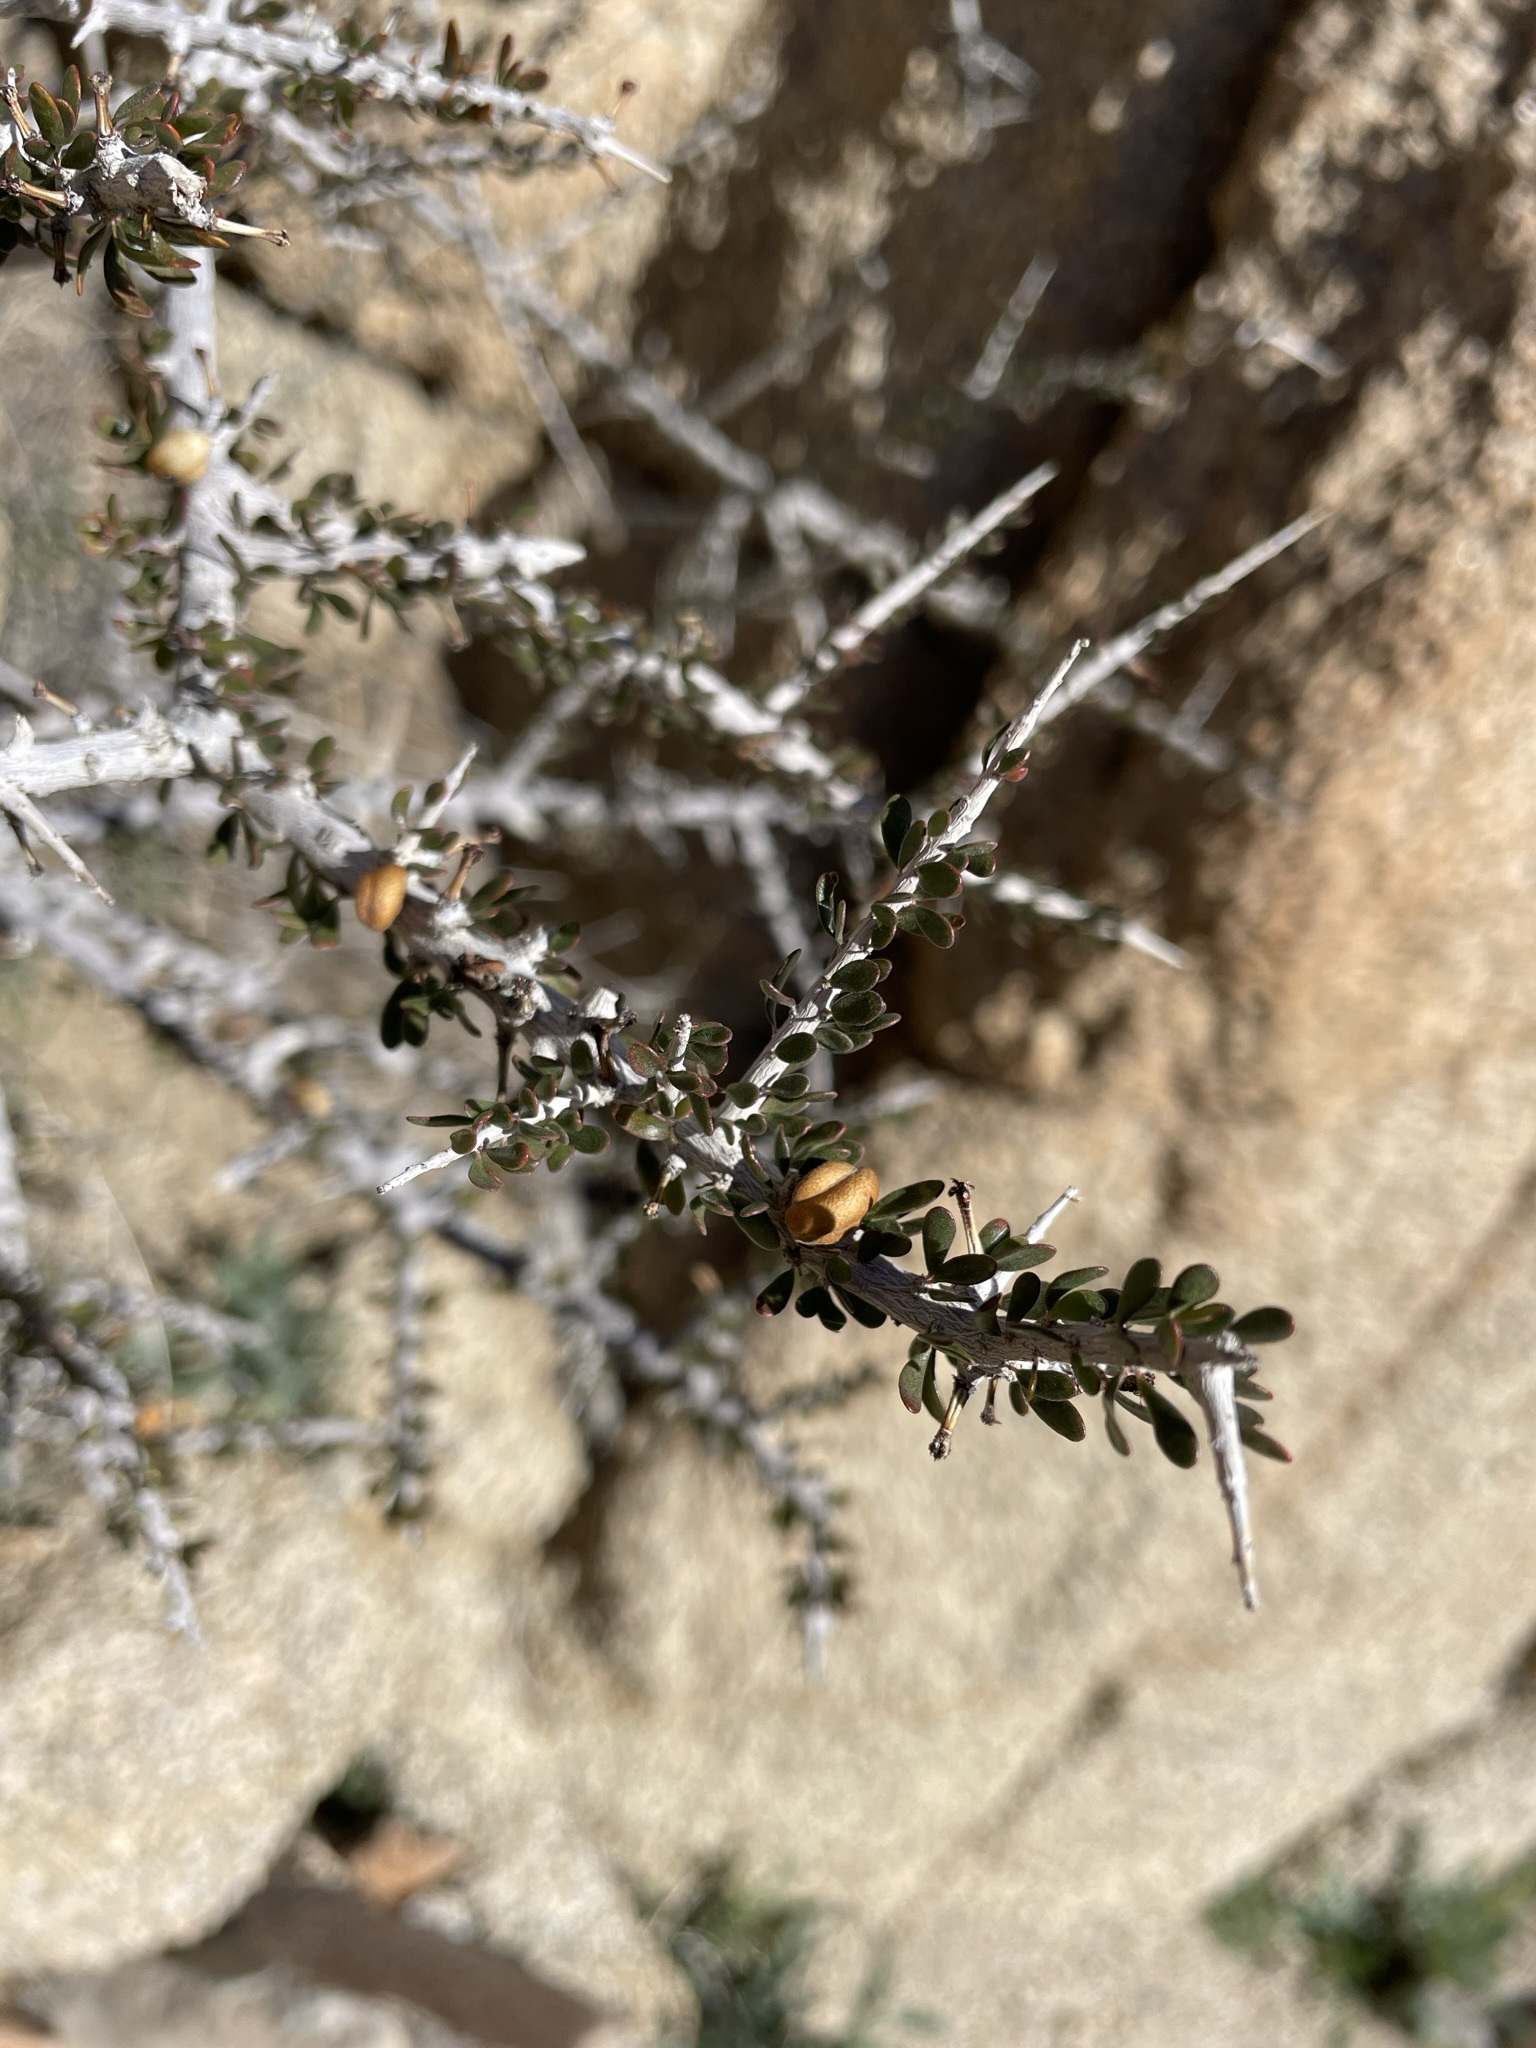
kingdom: Plantae
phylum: Tracheophyta
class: Magnoliopsida
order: Malpighiales
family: Picrodendraceae
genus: Tetracoccus
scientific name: Tetracoccus hallii
